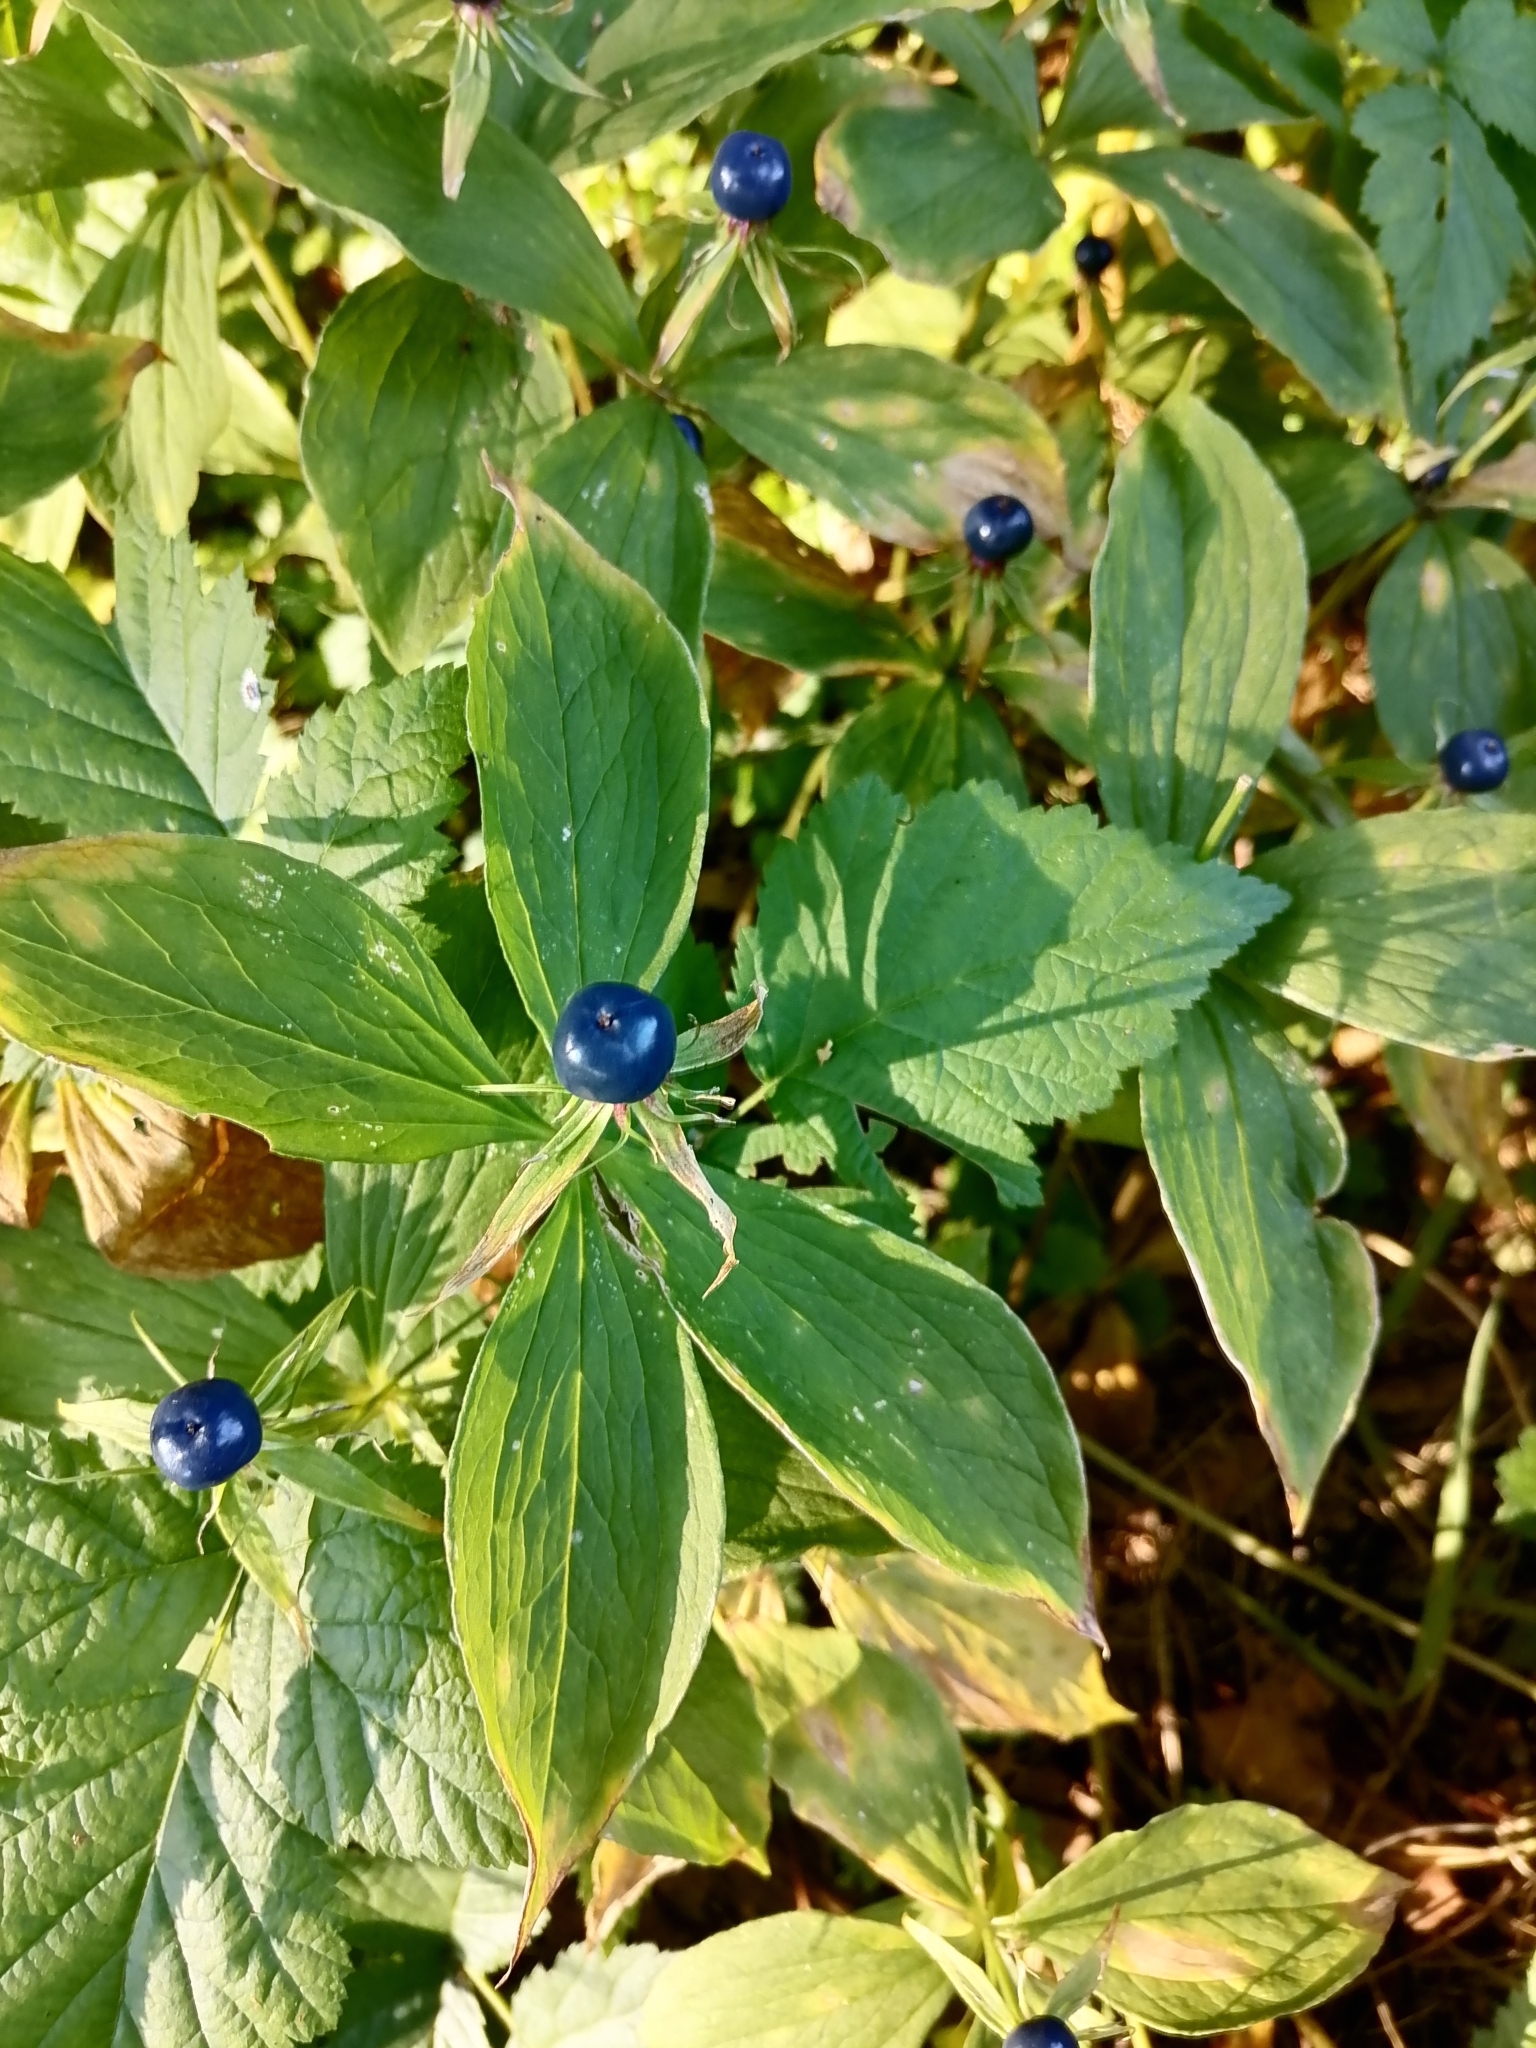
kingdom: Plantae
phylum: Tracheophyta
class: Liliopsida
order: Liliales
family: Melanthiaceae
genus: Paris
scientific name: Paris quadrifolia
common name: Herb-paris
